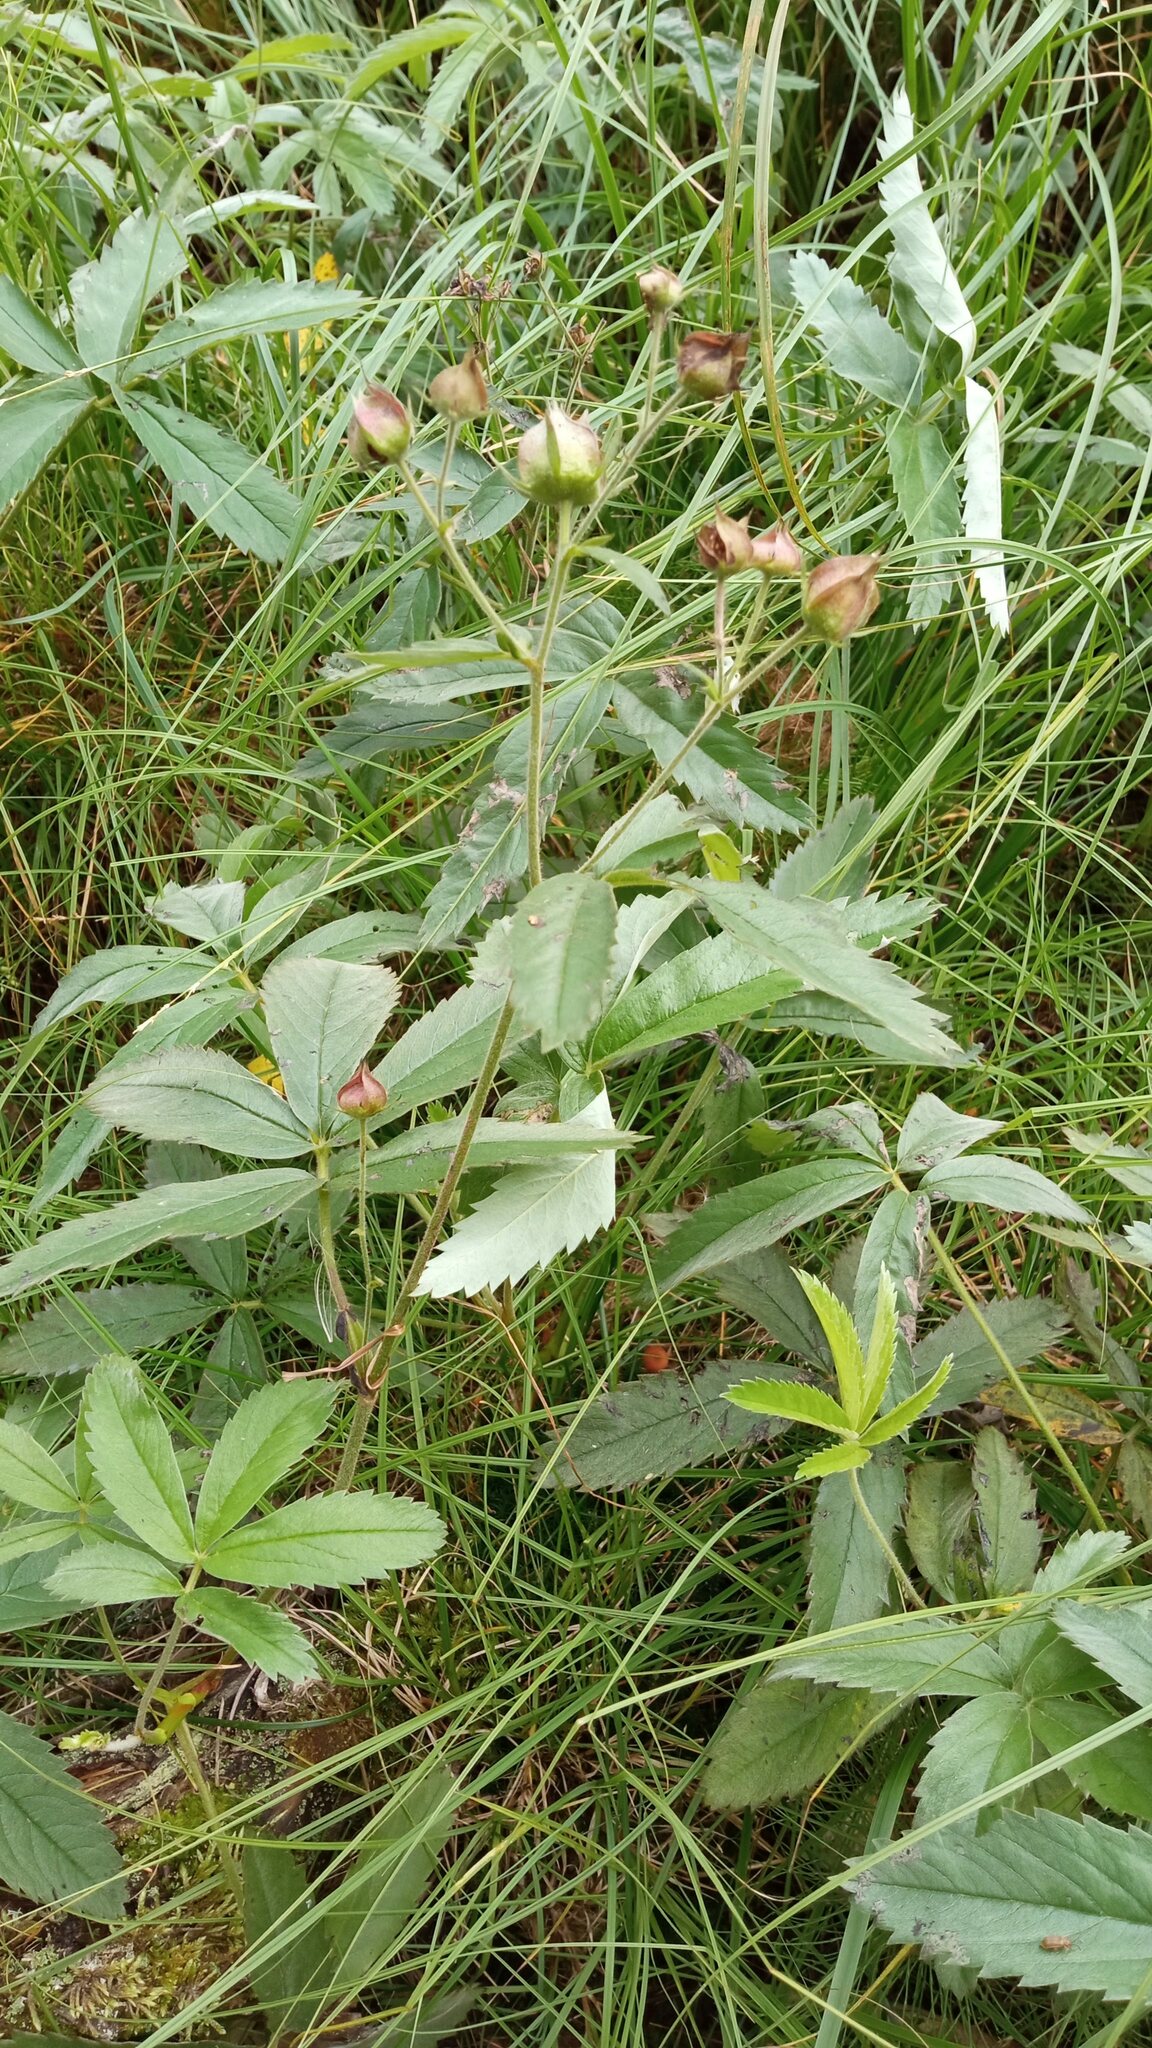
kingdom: Plantae
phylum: Tracheophyta
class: Magnoliopsida
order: Rosales
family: Rosaceae
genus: Comarum
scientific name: Comarum palustre
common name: Marsh cinquefoil
